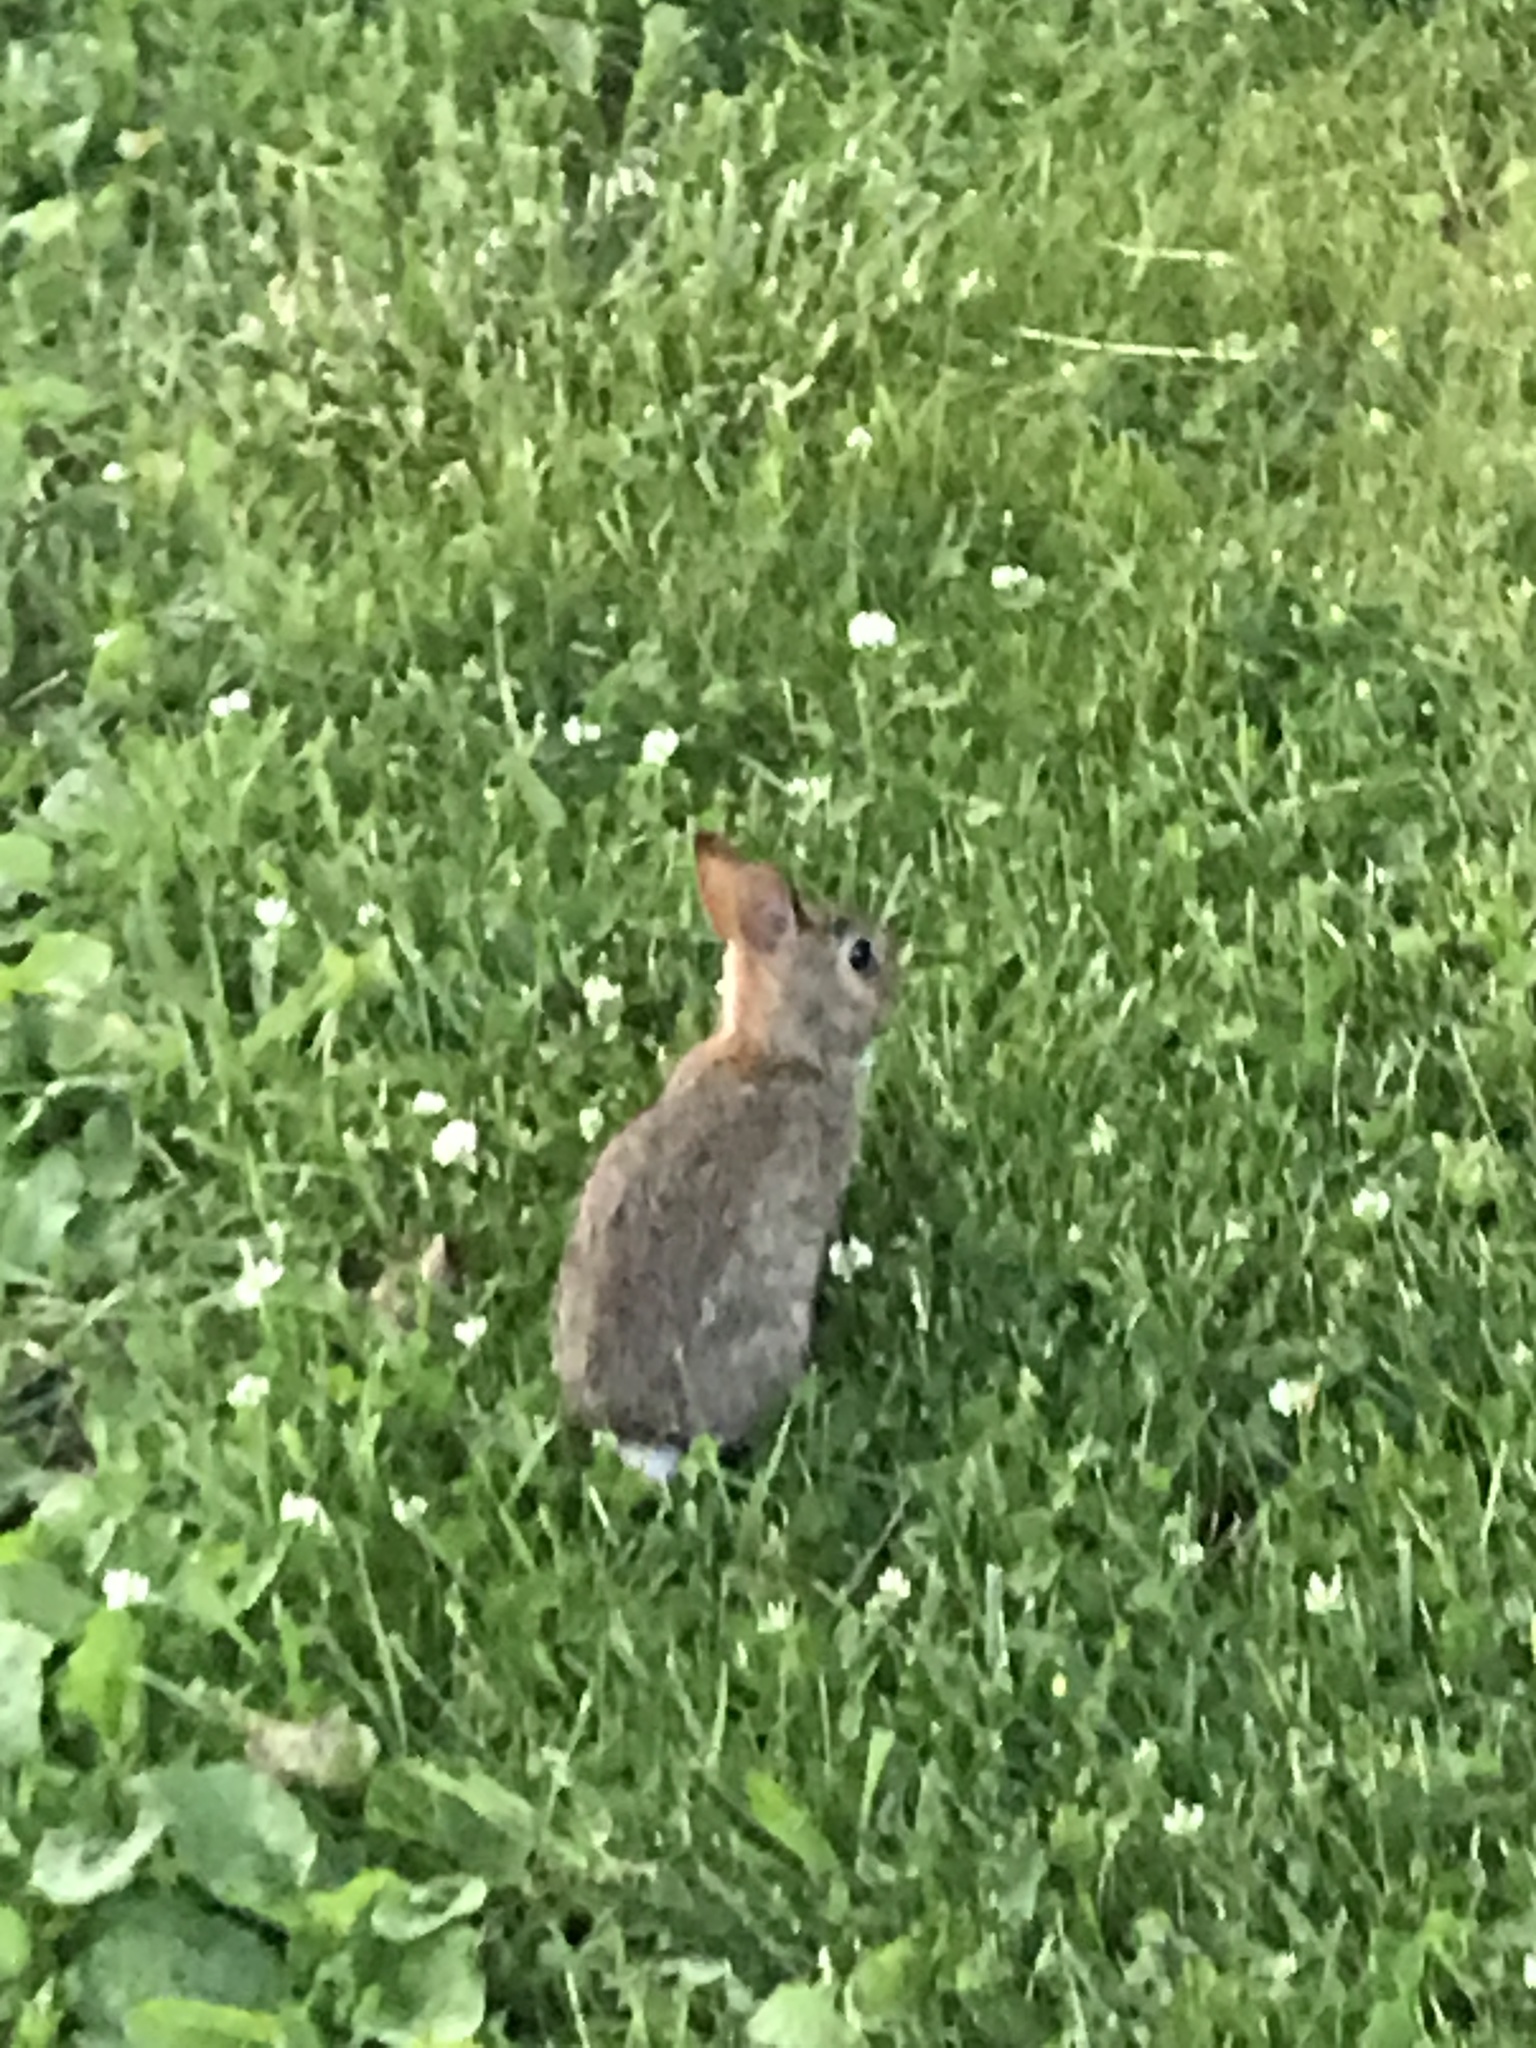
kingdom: Animalia
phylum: Chordata
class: Mammalia
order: Lagomorpha
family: Leporidae
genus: Sylvilagus
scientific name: Sylvilagus floridanus
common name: Eastern cottontail
